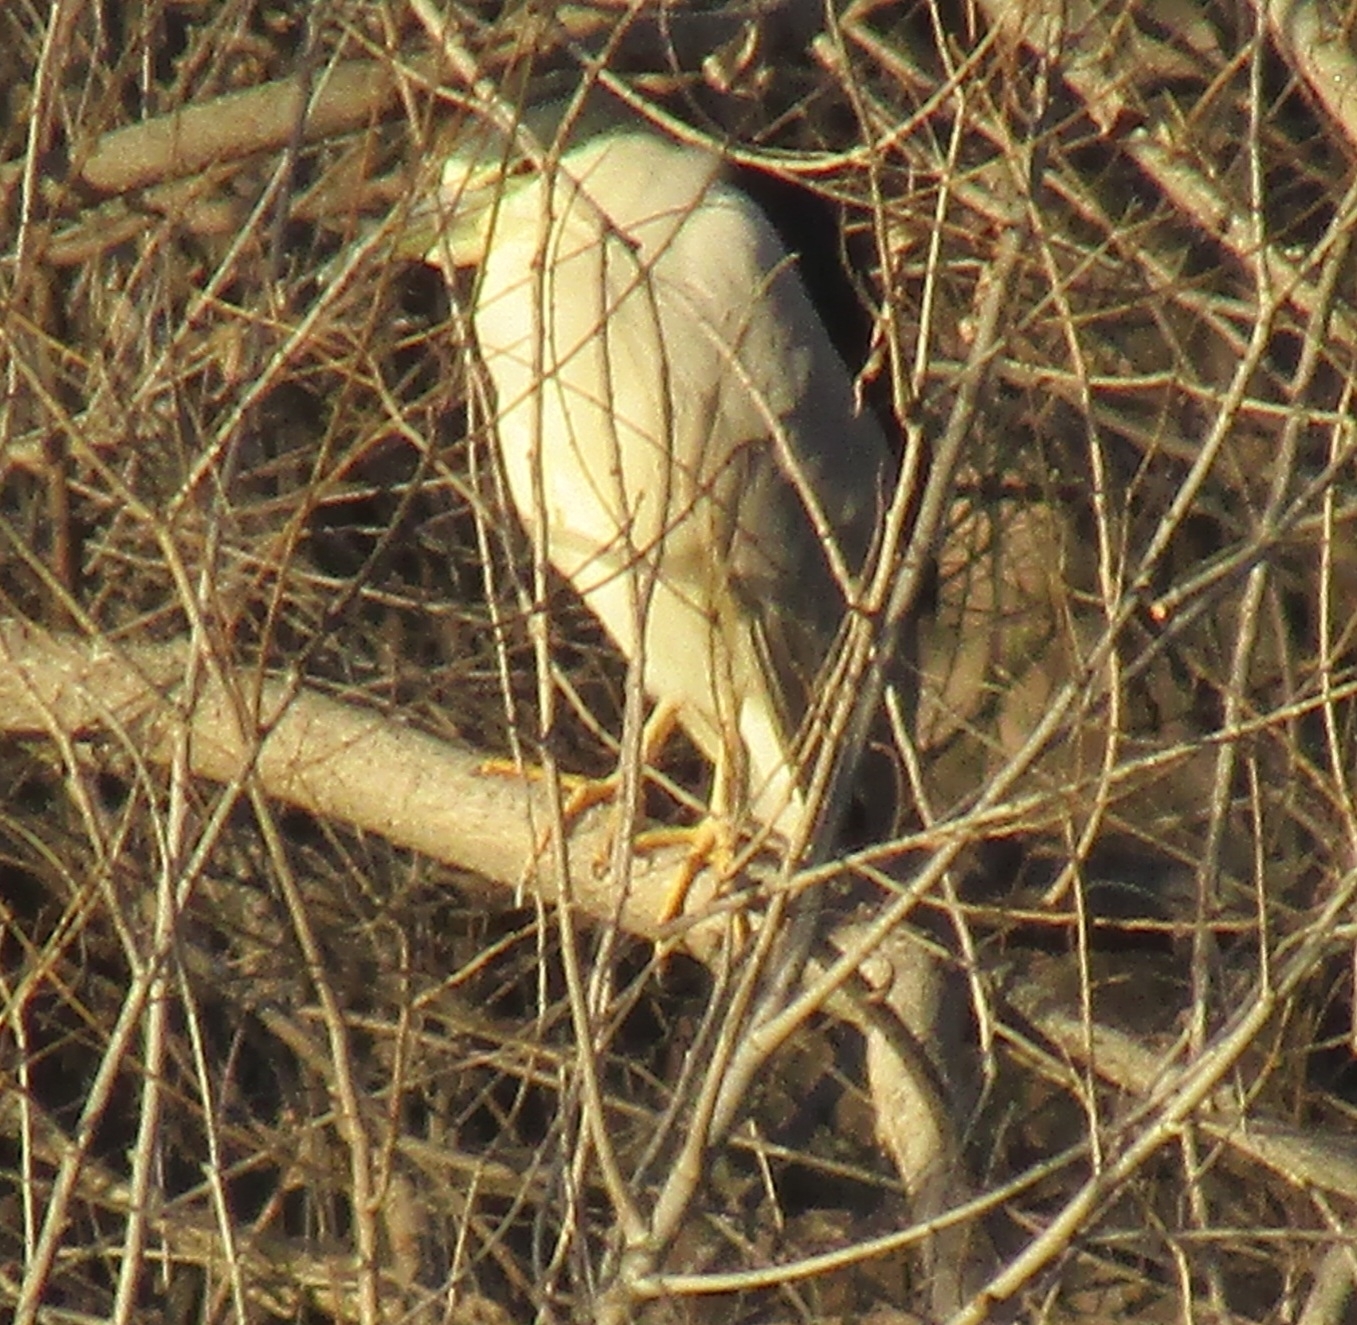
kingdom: Animalia
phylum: Chordata
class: Aves
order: Pelecaniformes
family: Ardeidae
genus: Nycticorax
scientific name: Nycticorax nycticorax
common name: Black-crowned night heron
